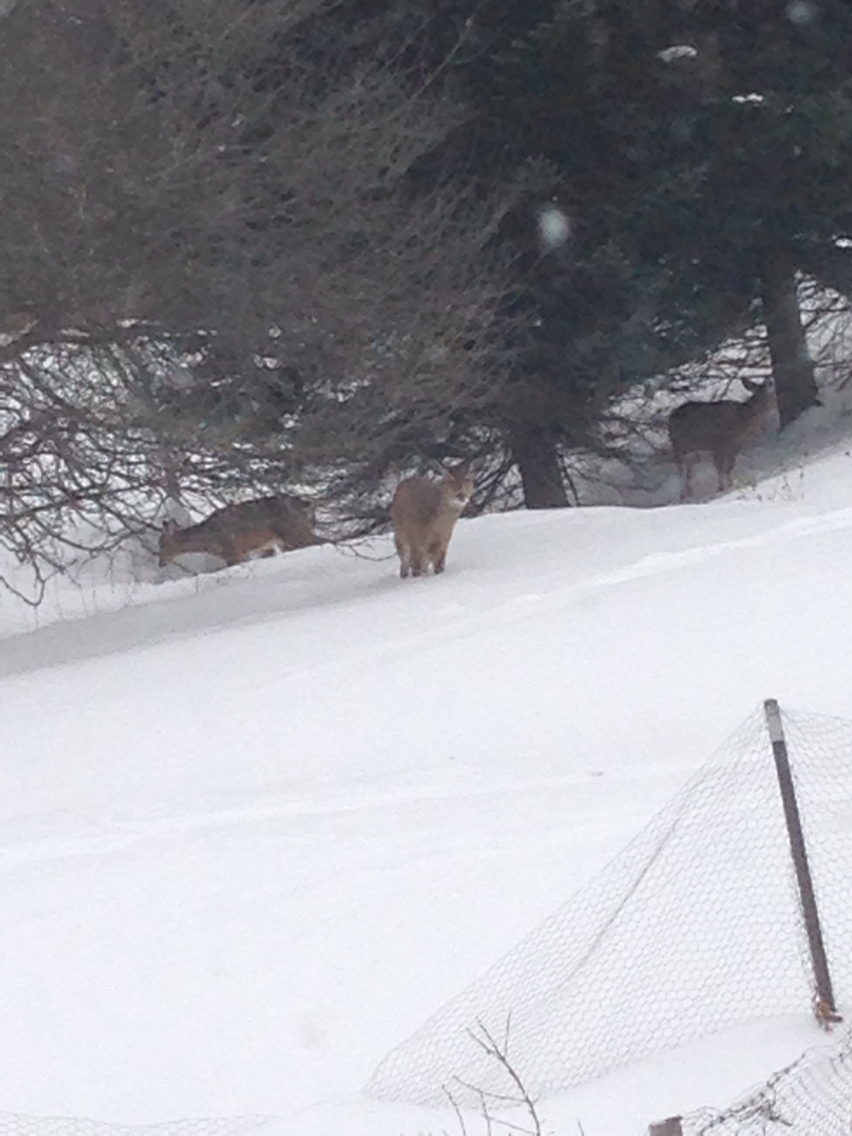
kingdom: Animalia
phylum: Chordata
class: Mammalia
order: Artiodactyla
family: Cervidae
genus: Odocoileus
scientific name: Odocoileus virginianus
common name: White-tailed deer
